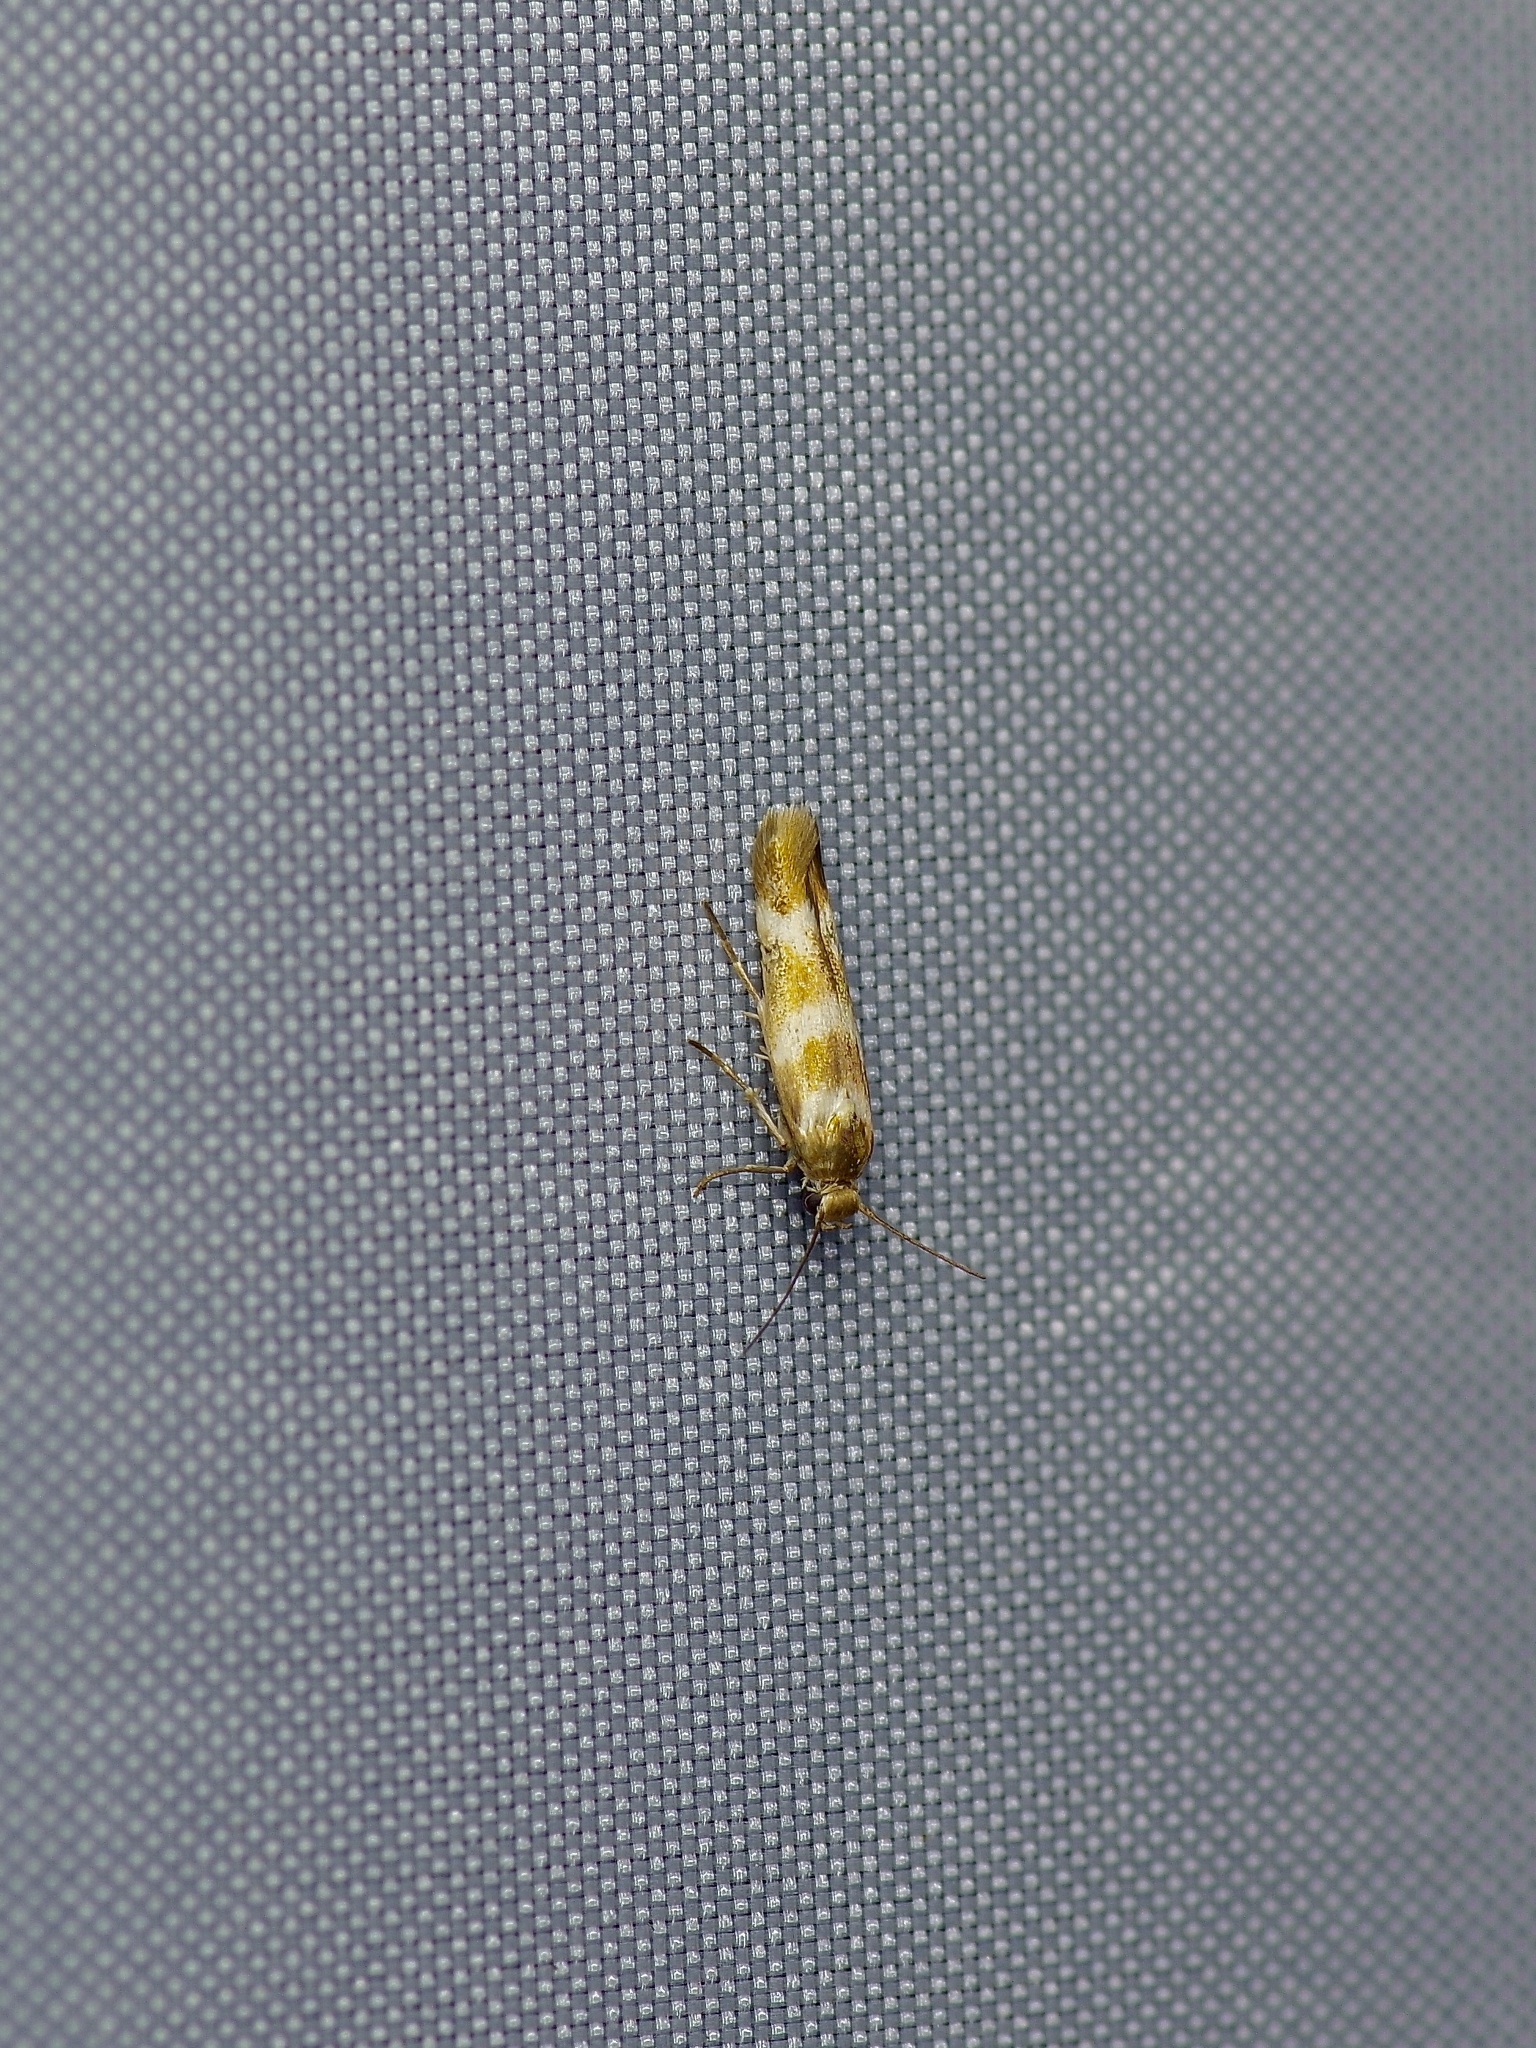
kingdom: Animalia
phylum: Arthropoda
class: Insecta
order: Lepidoptera
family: Scythrididae
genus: Scythris
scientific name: Scythris trivinctella
